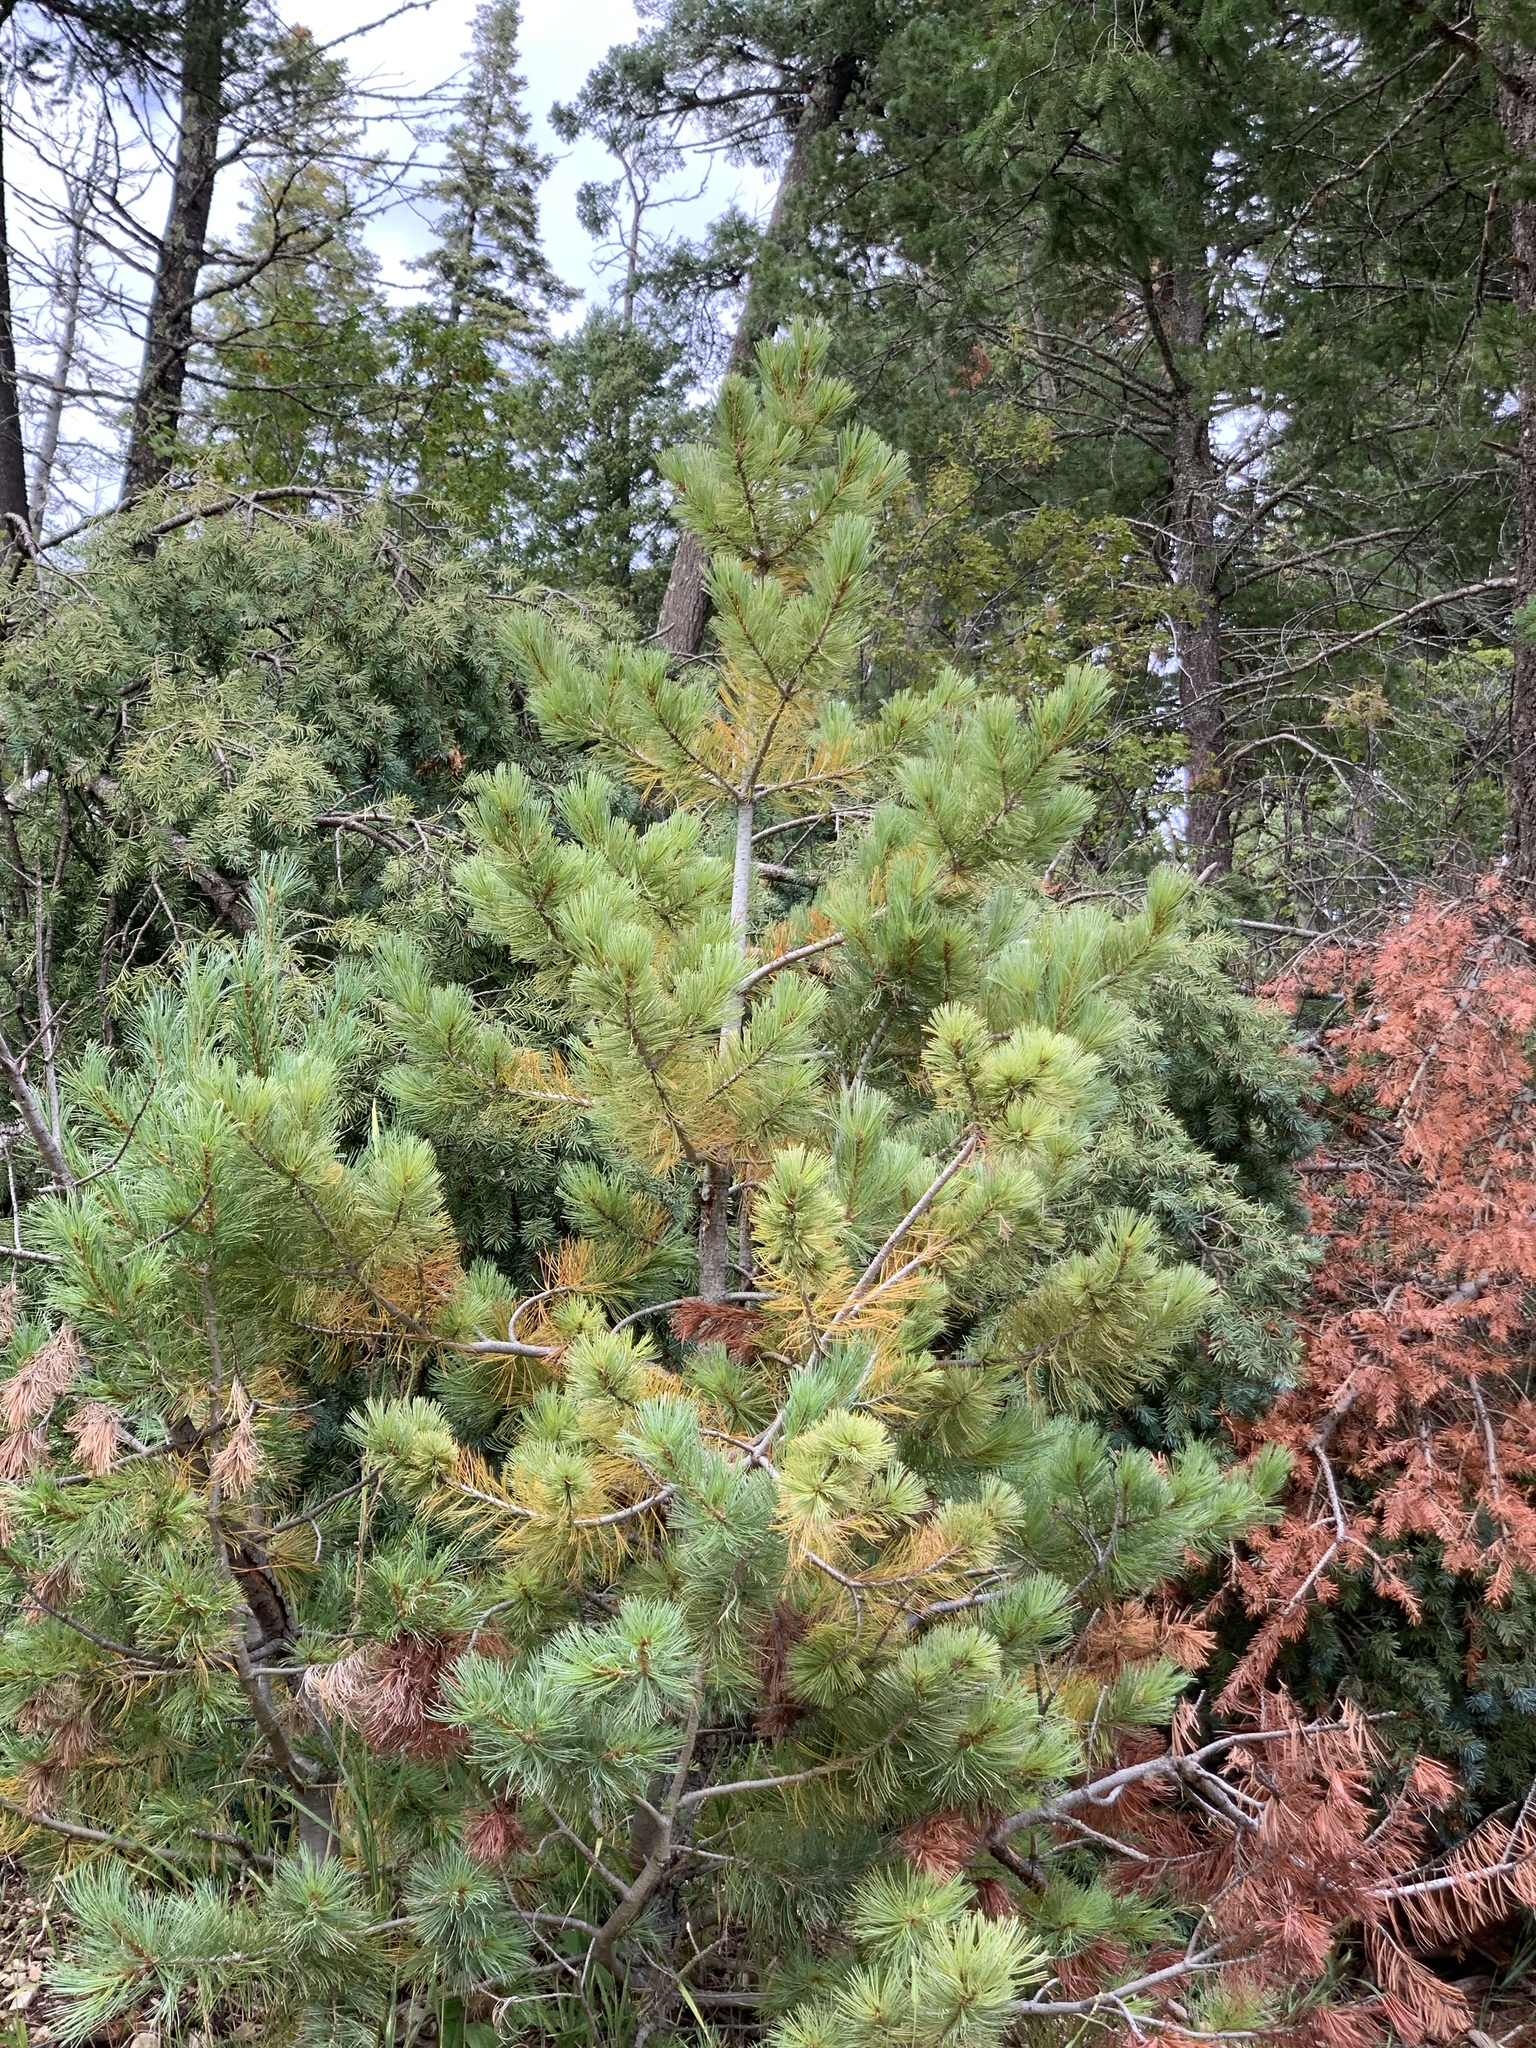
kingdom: Plantae
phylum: Tracheophyta
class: Pinopsida
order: Pinales
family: Pinaceae
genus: Pinus
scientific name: Pinus strobiformis
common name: Southwestern white pine
